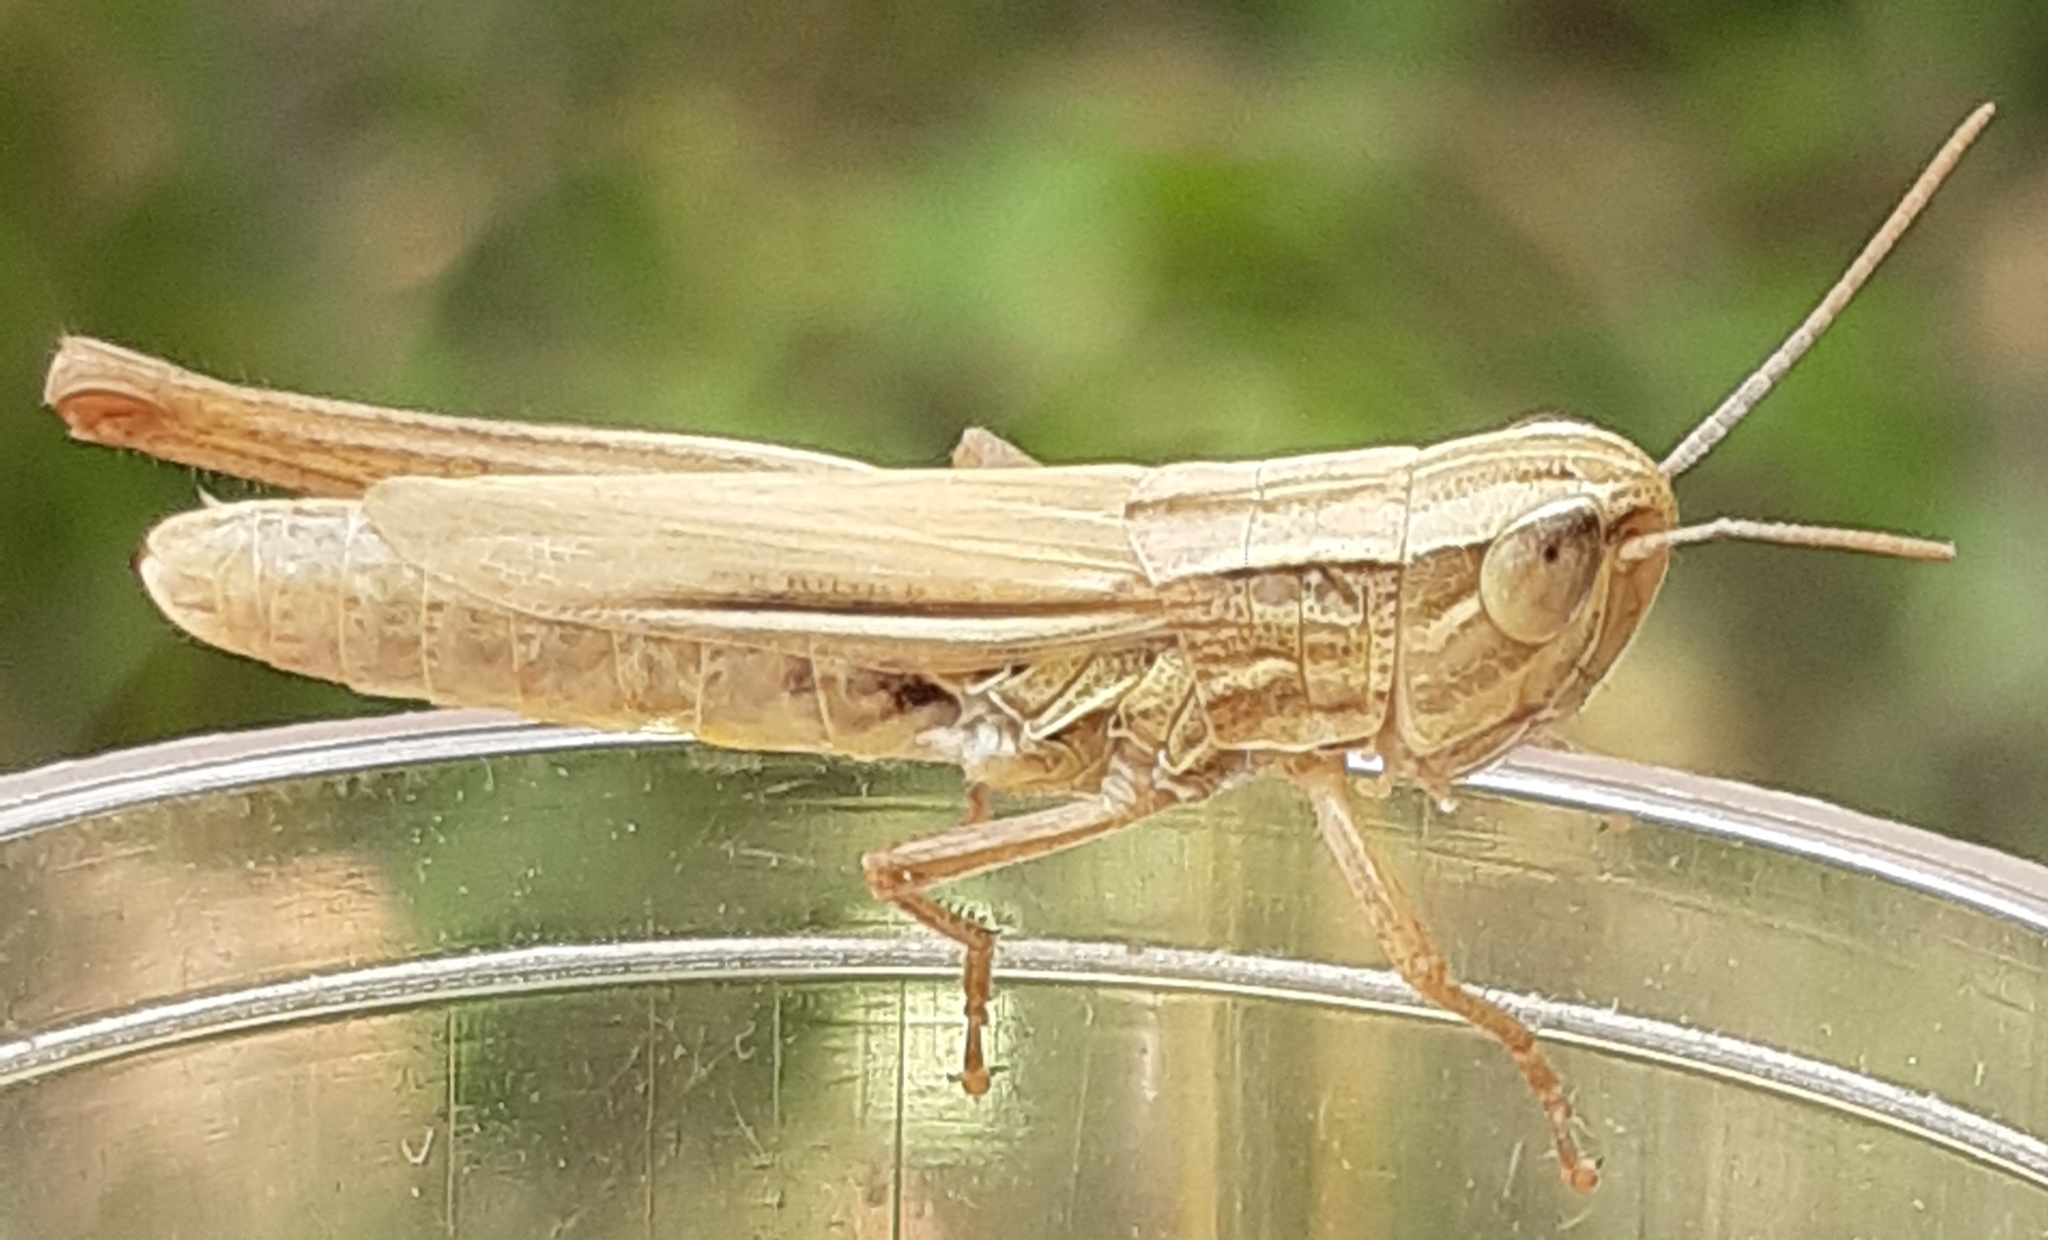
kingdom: Animalia
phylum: Arthropoda
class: Insecta
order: Orthoptera
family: Acrididae
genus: Euchorthippus
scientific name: Euchorthippus declivus
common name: Common straw grasshopper
